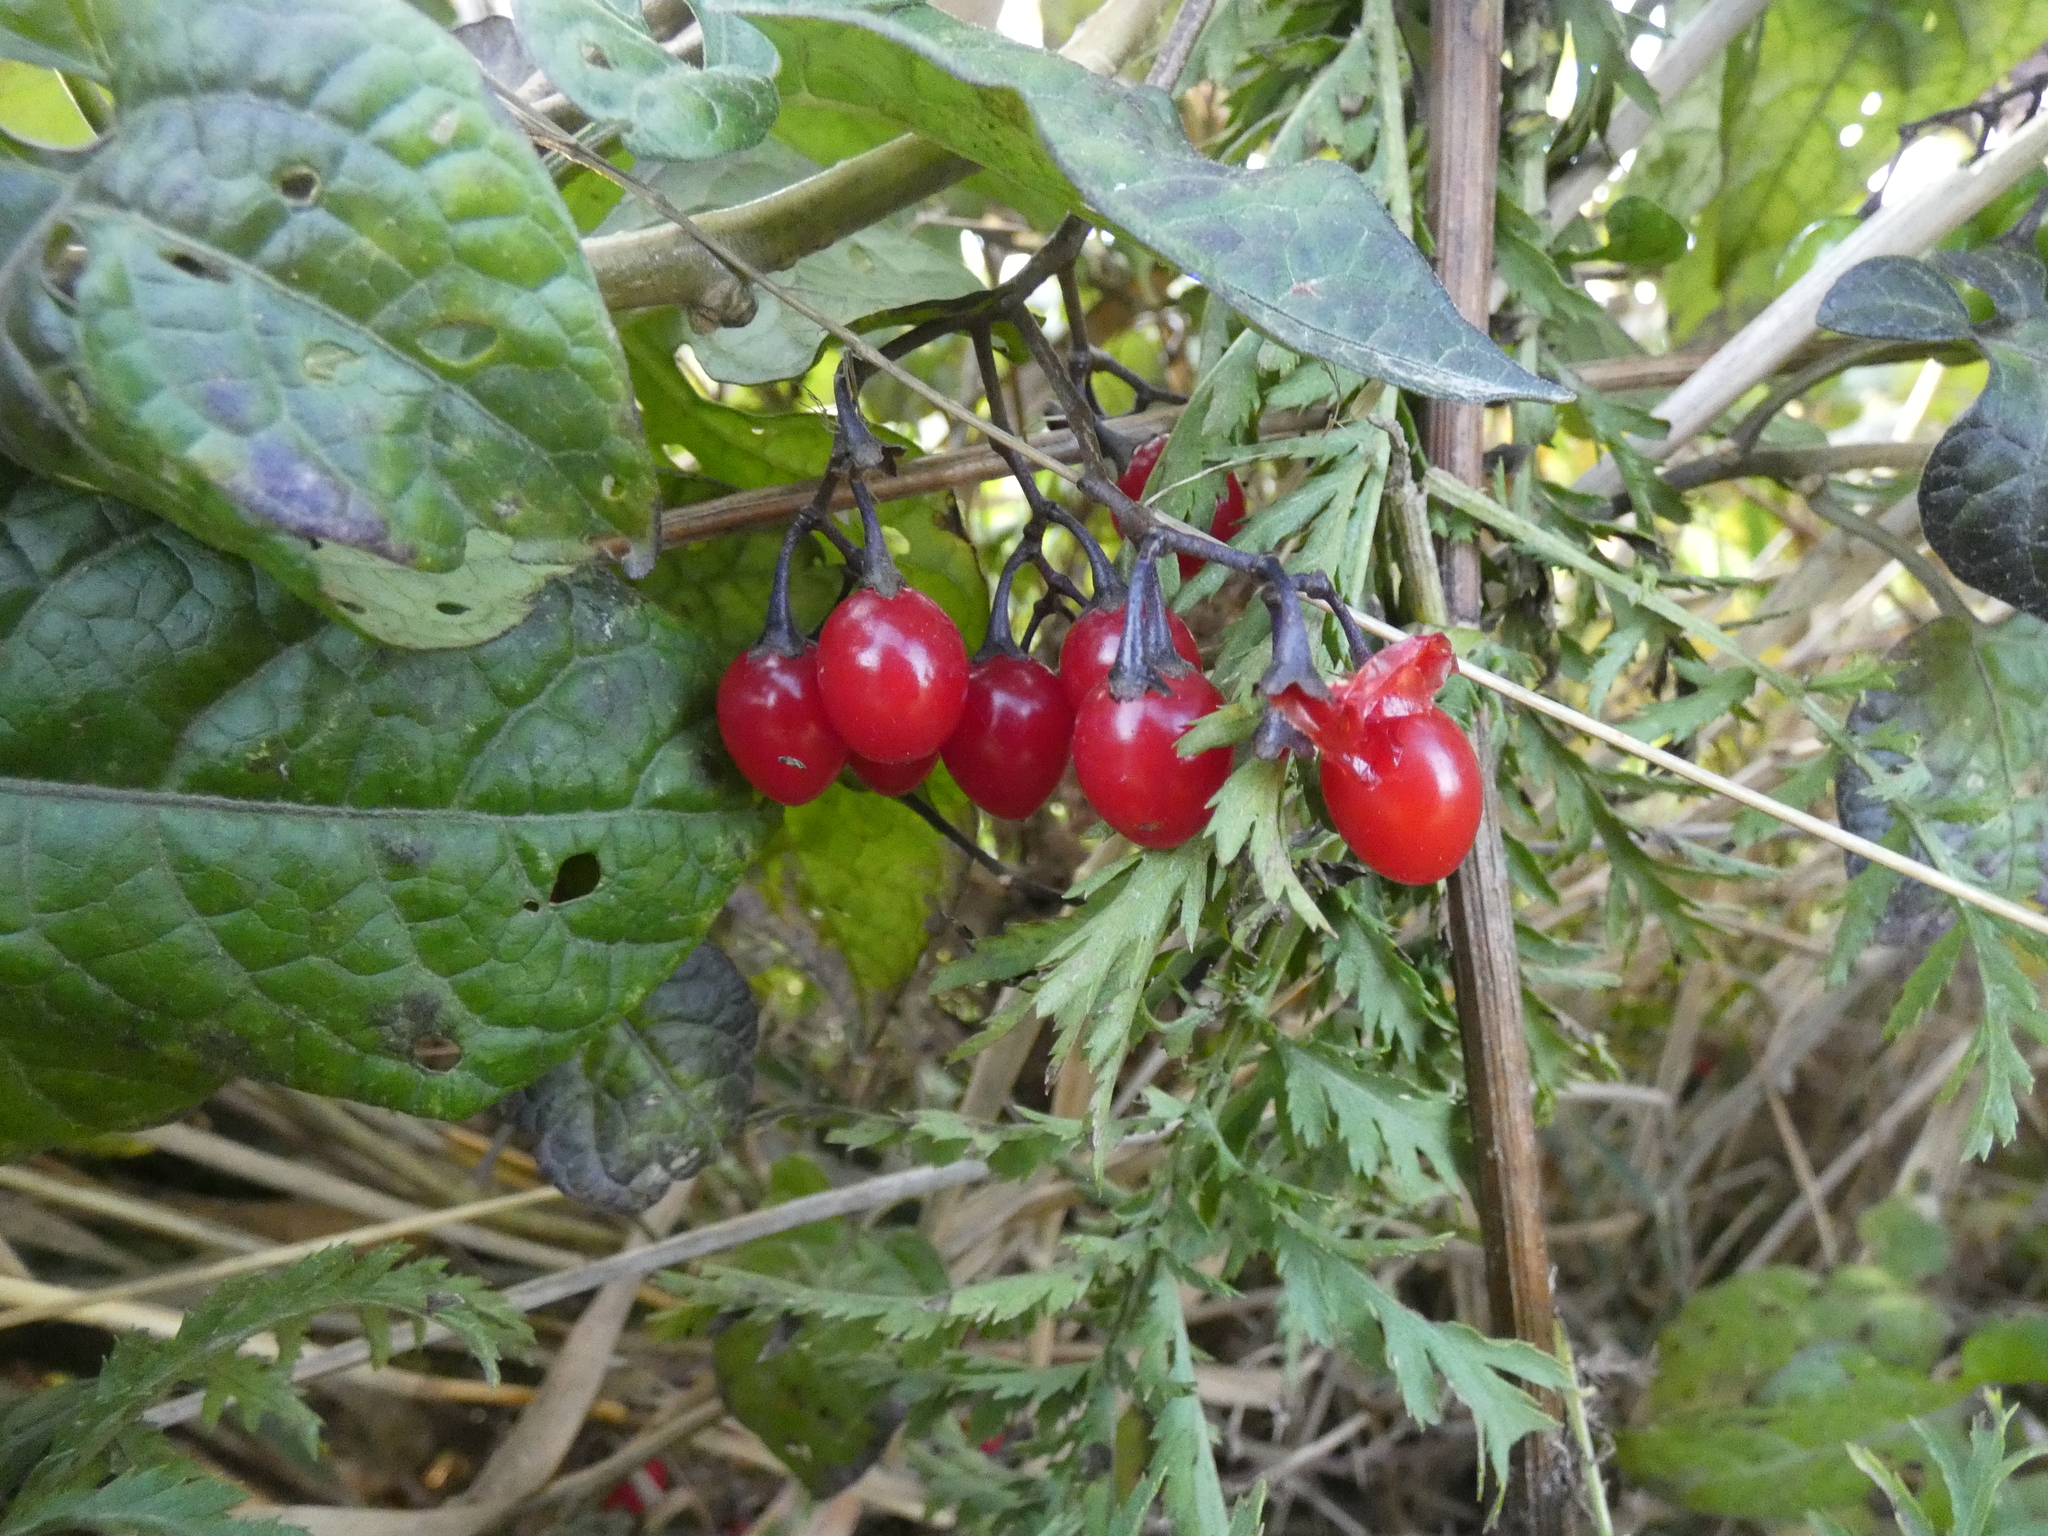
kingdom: Plantae
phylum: Tracheophyta
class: Magnoliopsida
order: Solanales
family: Solanaceae
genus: Solanum
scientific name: Solanum dulcamara
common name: Climbing nightshade
